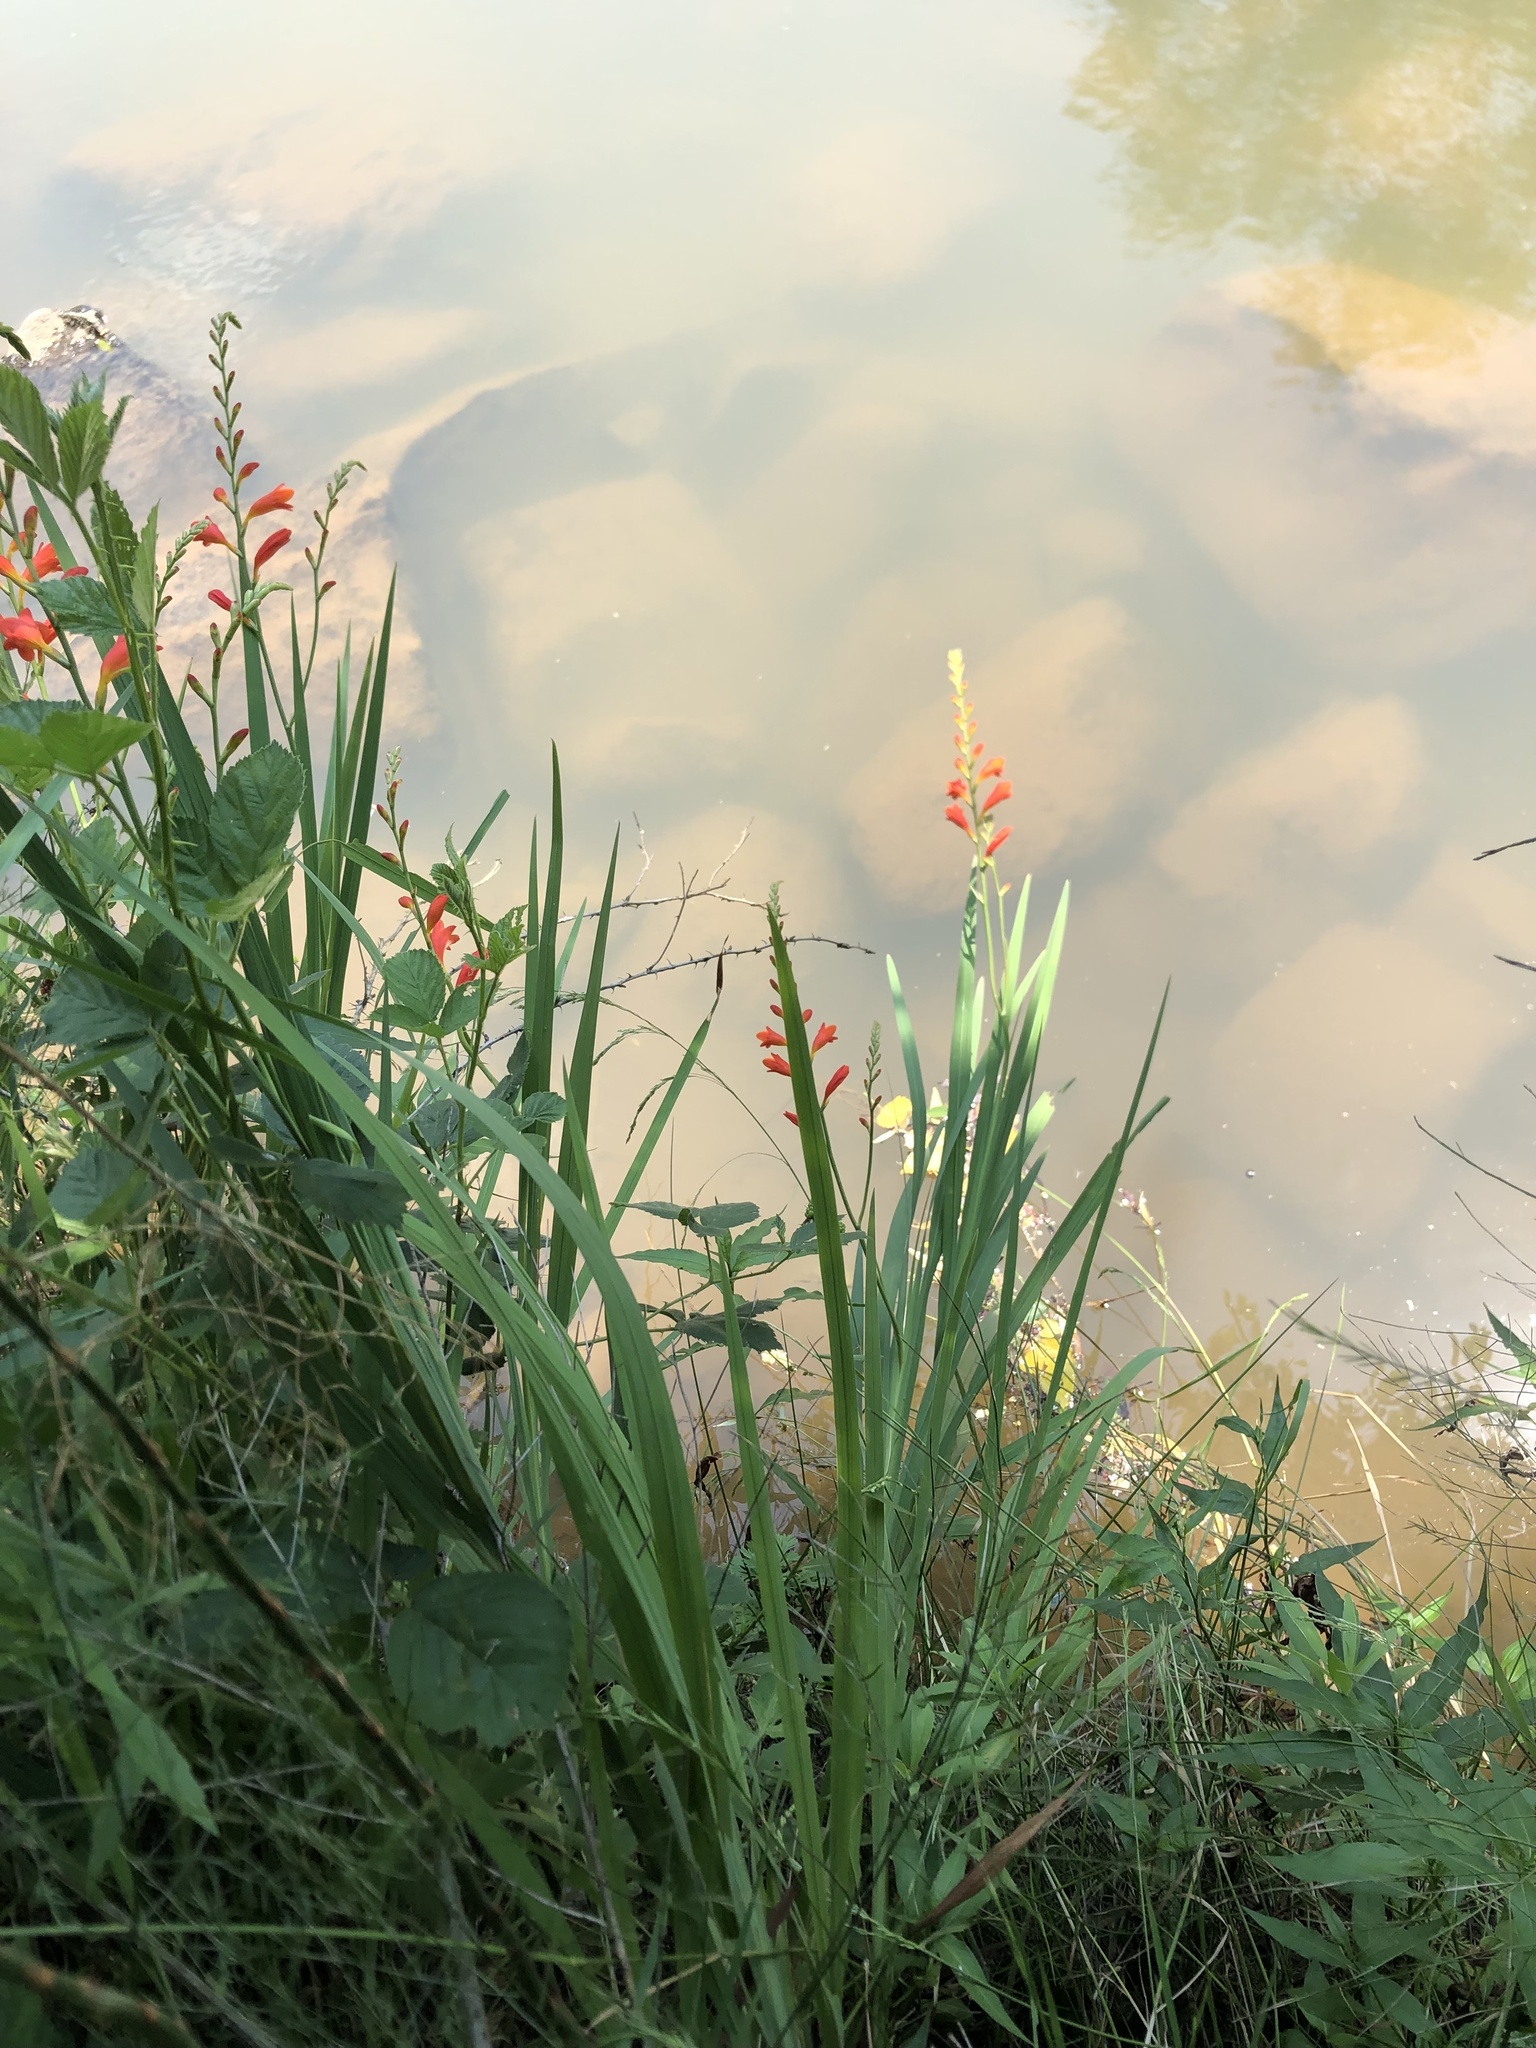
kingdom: Plantae
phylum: Tracheophyta
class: Liliopsida
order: Asparagales
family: Iridaceae
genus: Crocosmia
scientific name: Crocosmia pottsii
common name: Pott's montbretia
